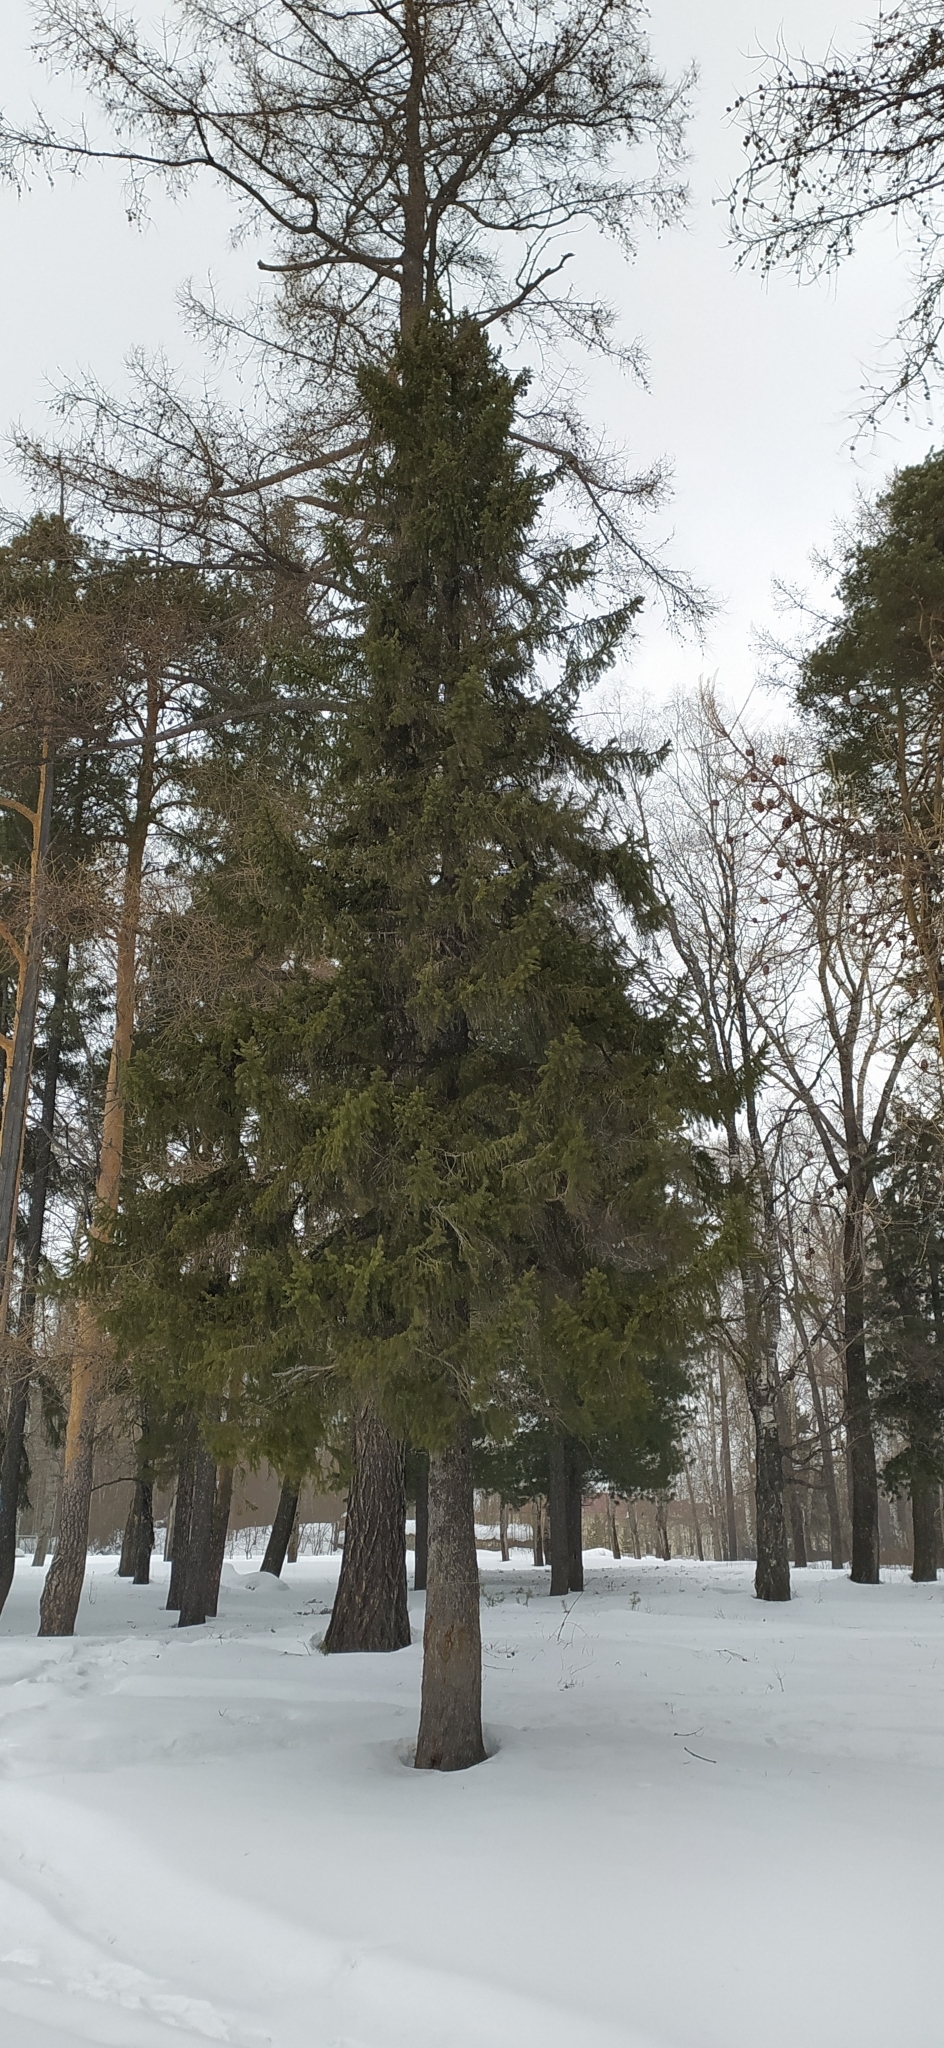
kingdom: Plantae
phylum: Tracheophyta
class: Pinopsida
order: Pinales
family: Pinaceae
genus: Picea
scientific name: Picea obovata
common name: Siberian spruce
